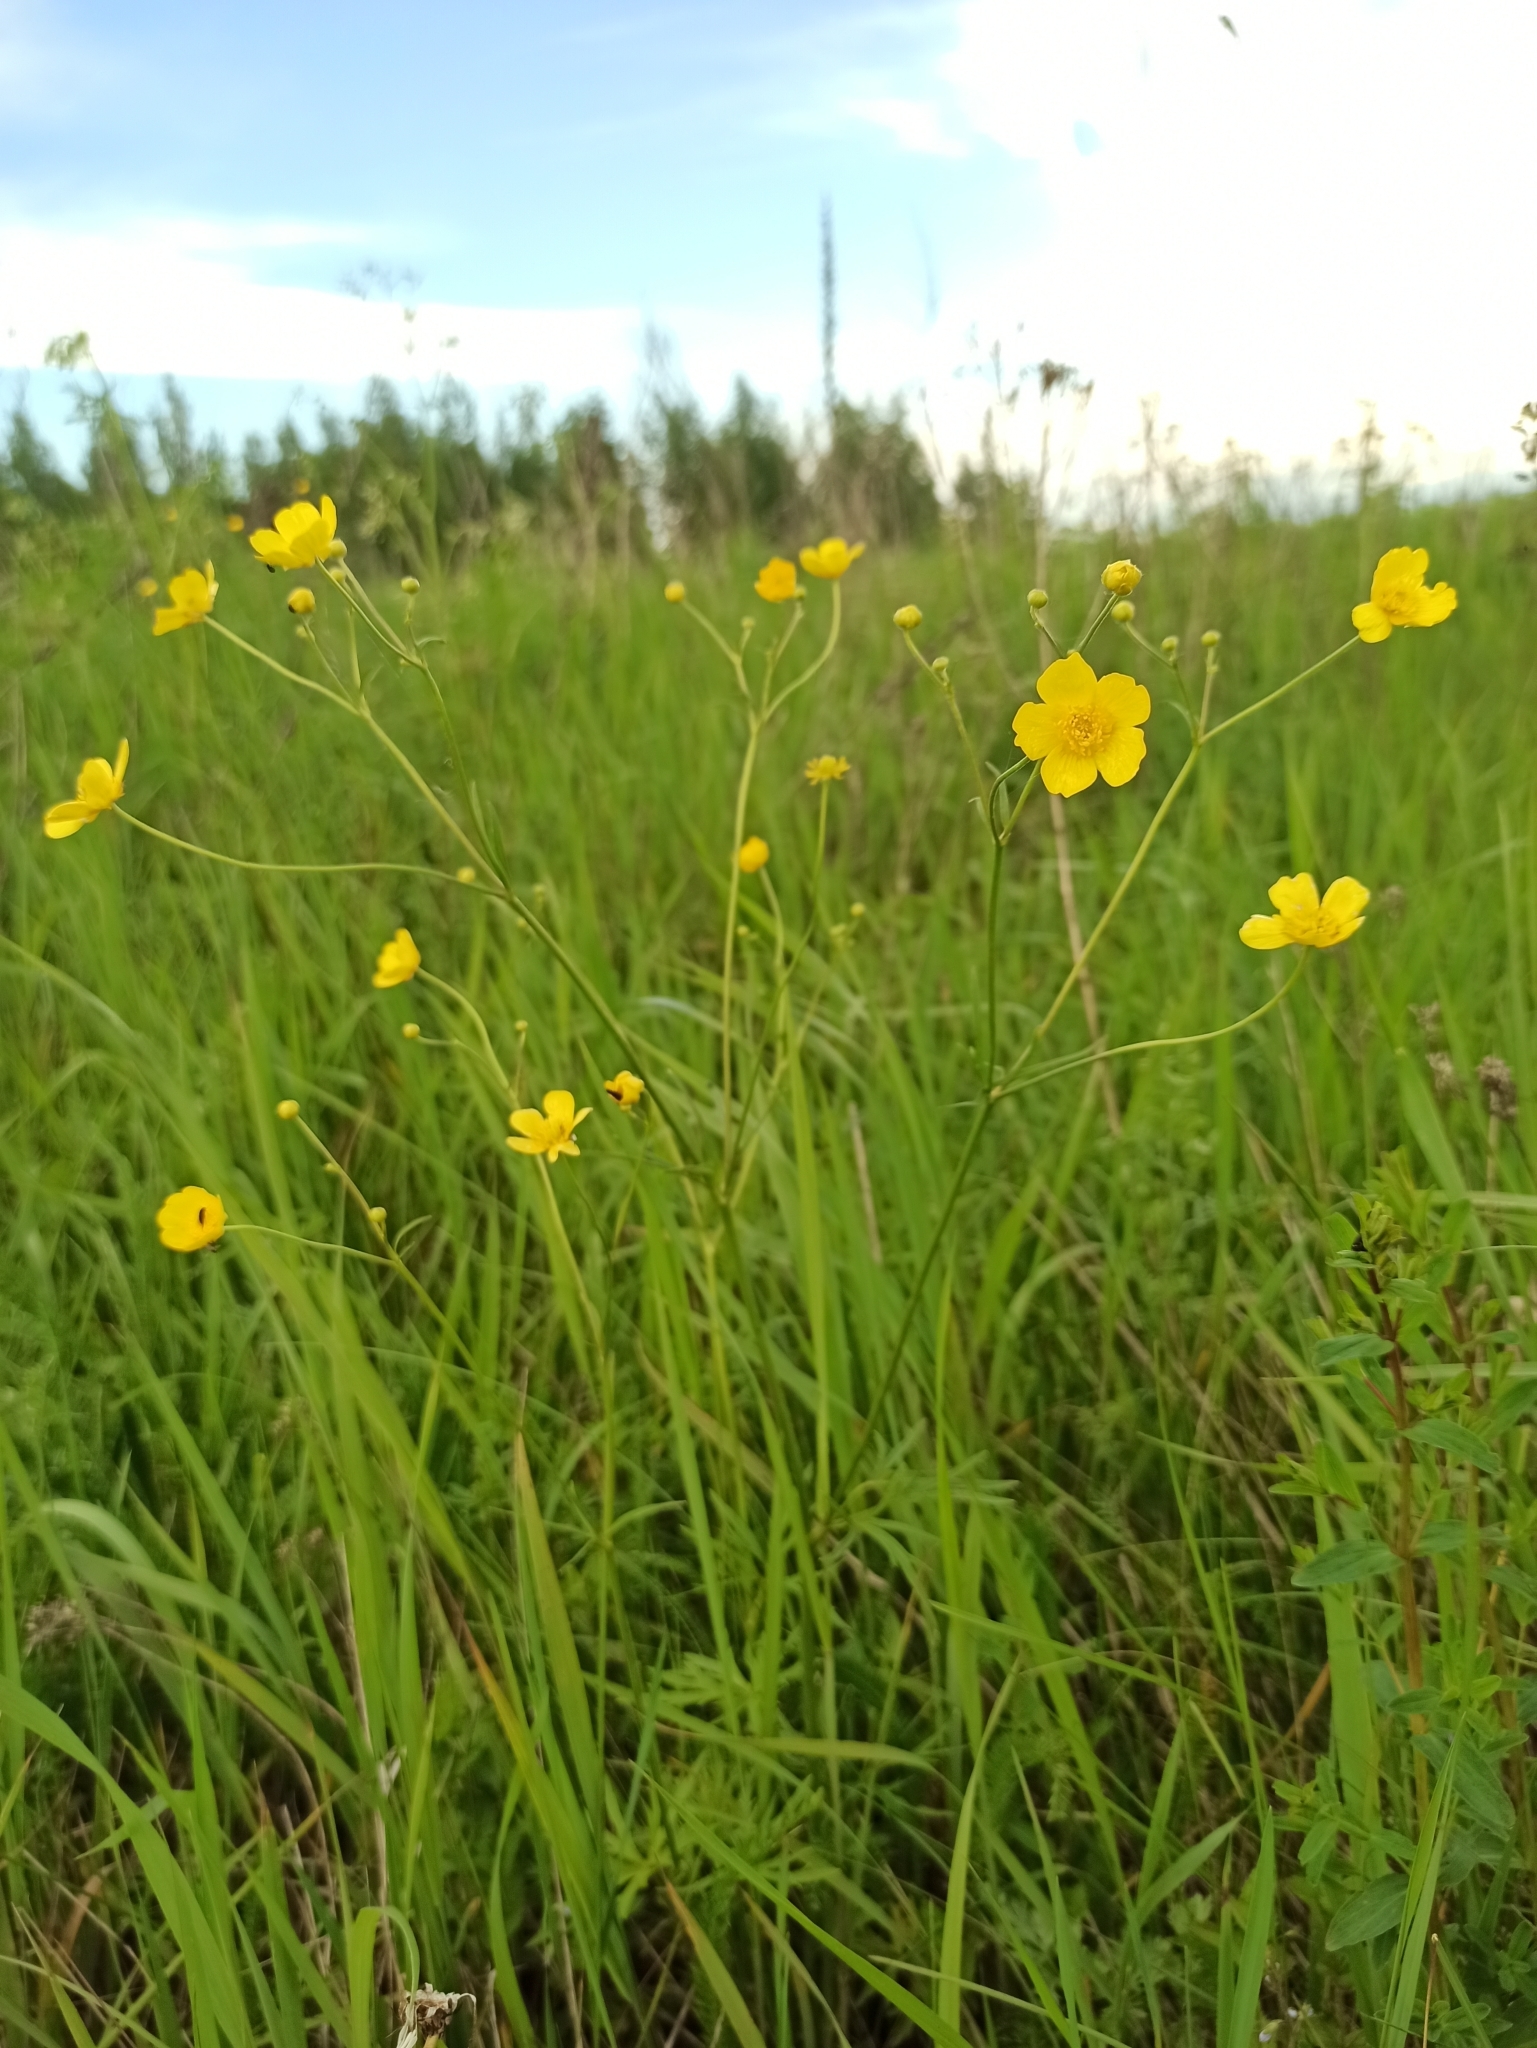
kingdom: Plantae
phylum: Tracheophyta
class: Magnoliopsida
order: Ranunculales
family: Ranunculaceae
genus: Ranunculus
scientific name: Ranunculus acris
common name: Meadow buttercup
